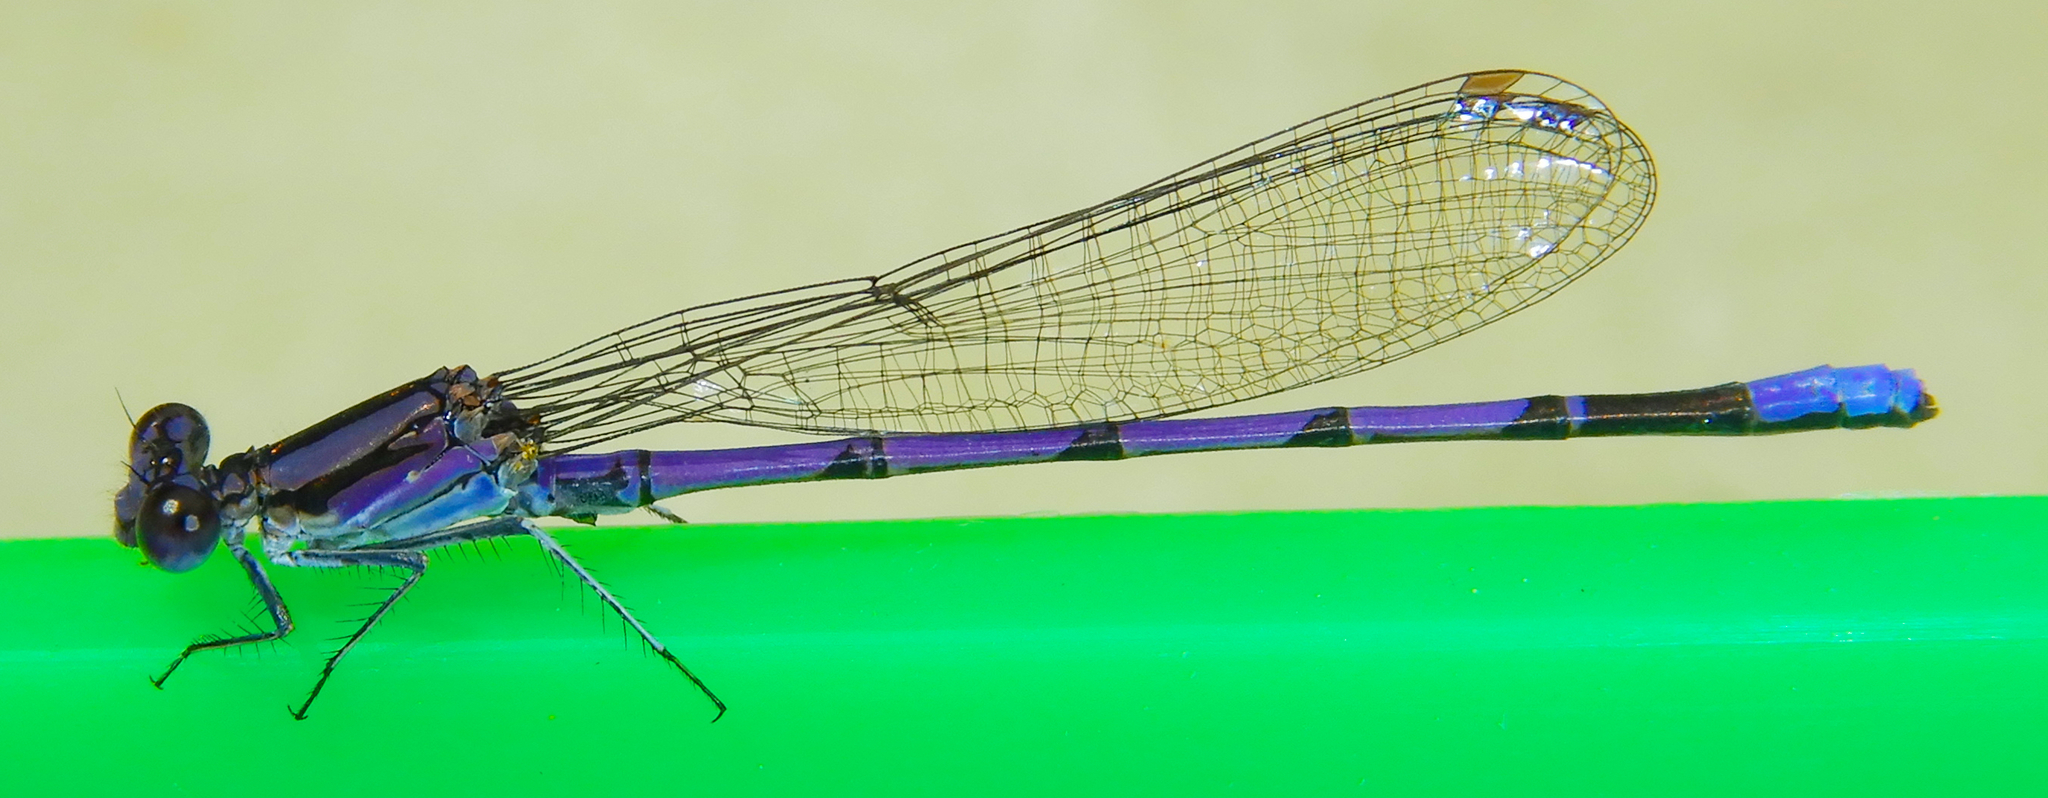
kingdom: Animalia
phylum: Arthropoda
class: Insecta
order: Odonata
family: Coenagrionidae
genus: Argia
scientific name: Argia fumipennis
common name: Variable dancer
